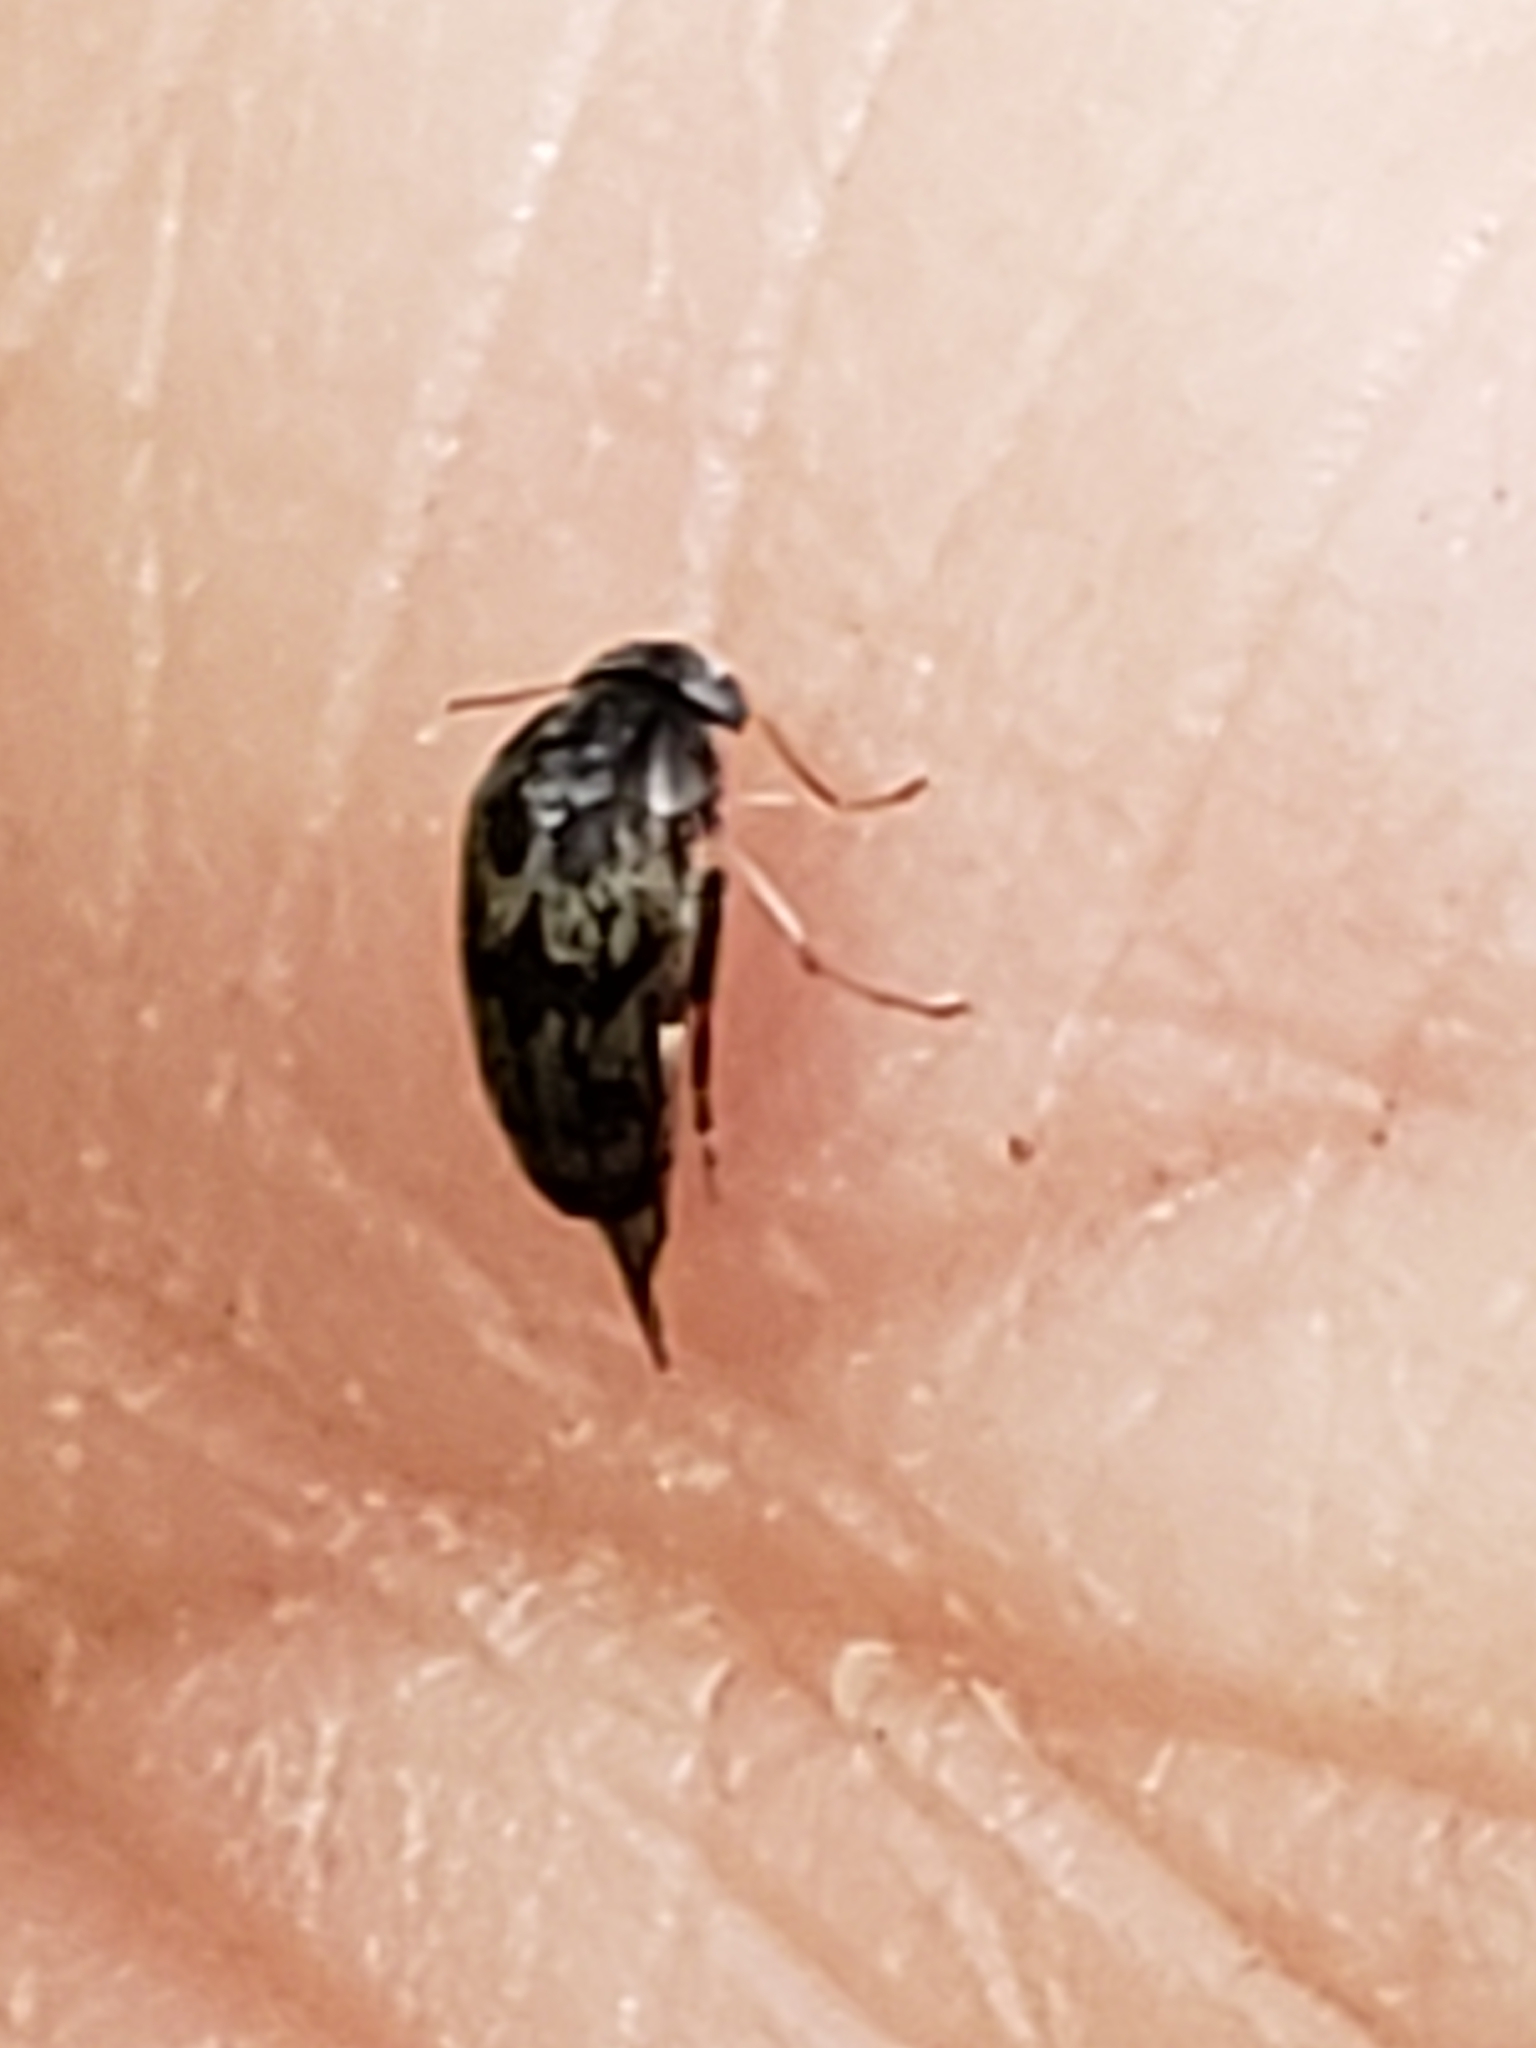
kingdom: Animalia
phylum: Arthropoda
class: Insecta
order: Coleoptera
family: Mordellidae
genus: Paramordellaria
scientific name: Paramordellaria triloba
